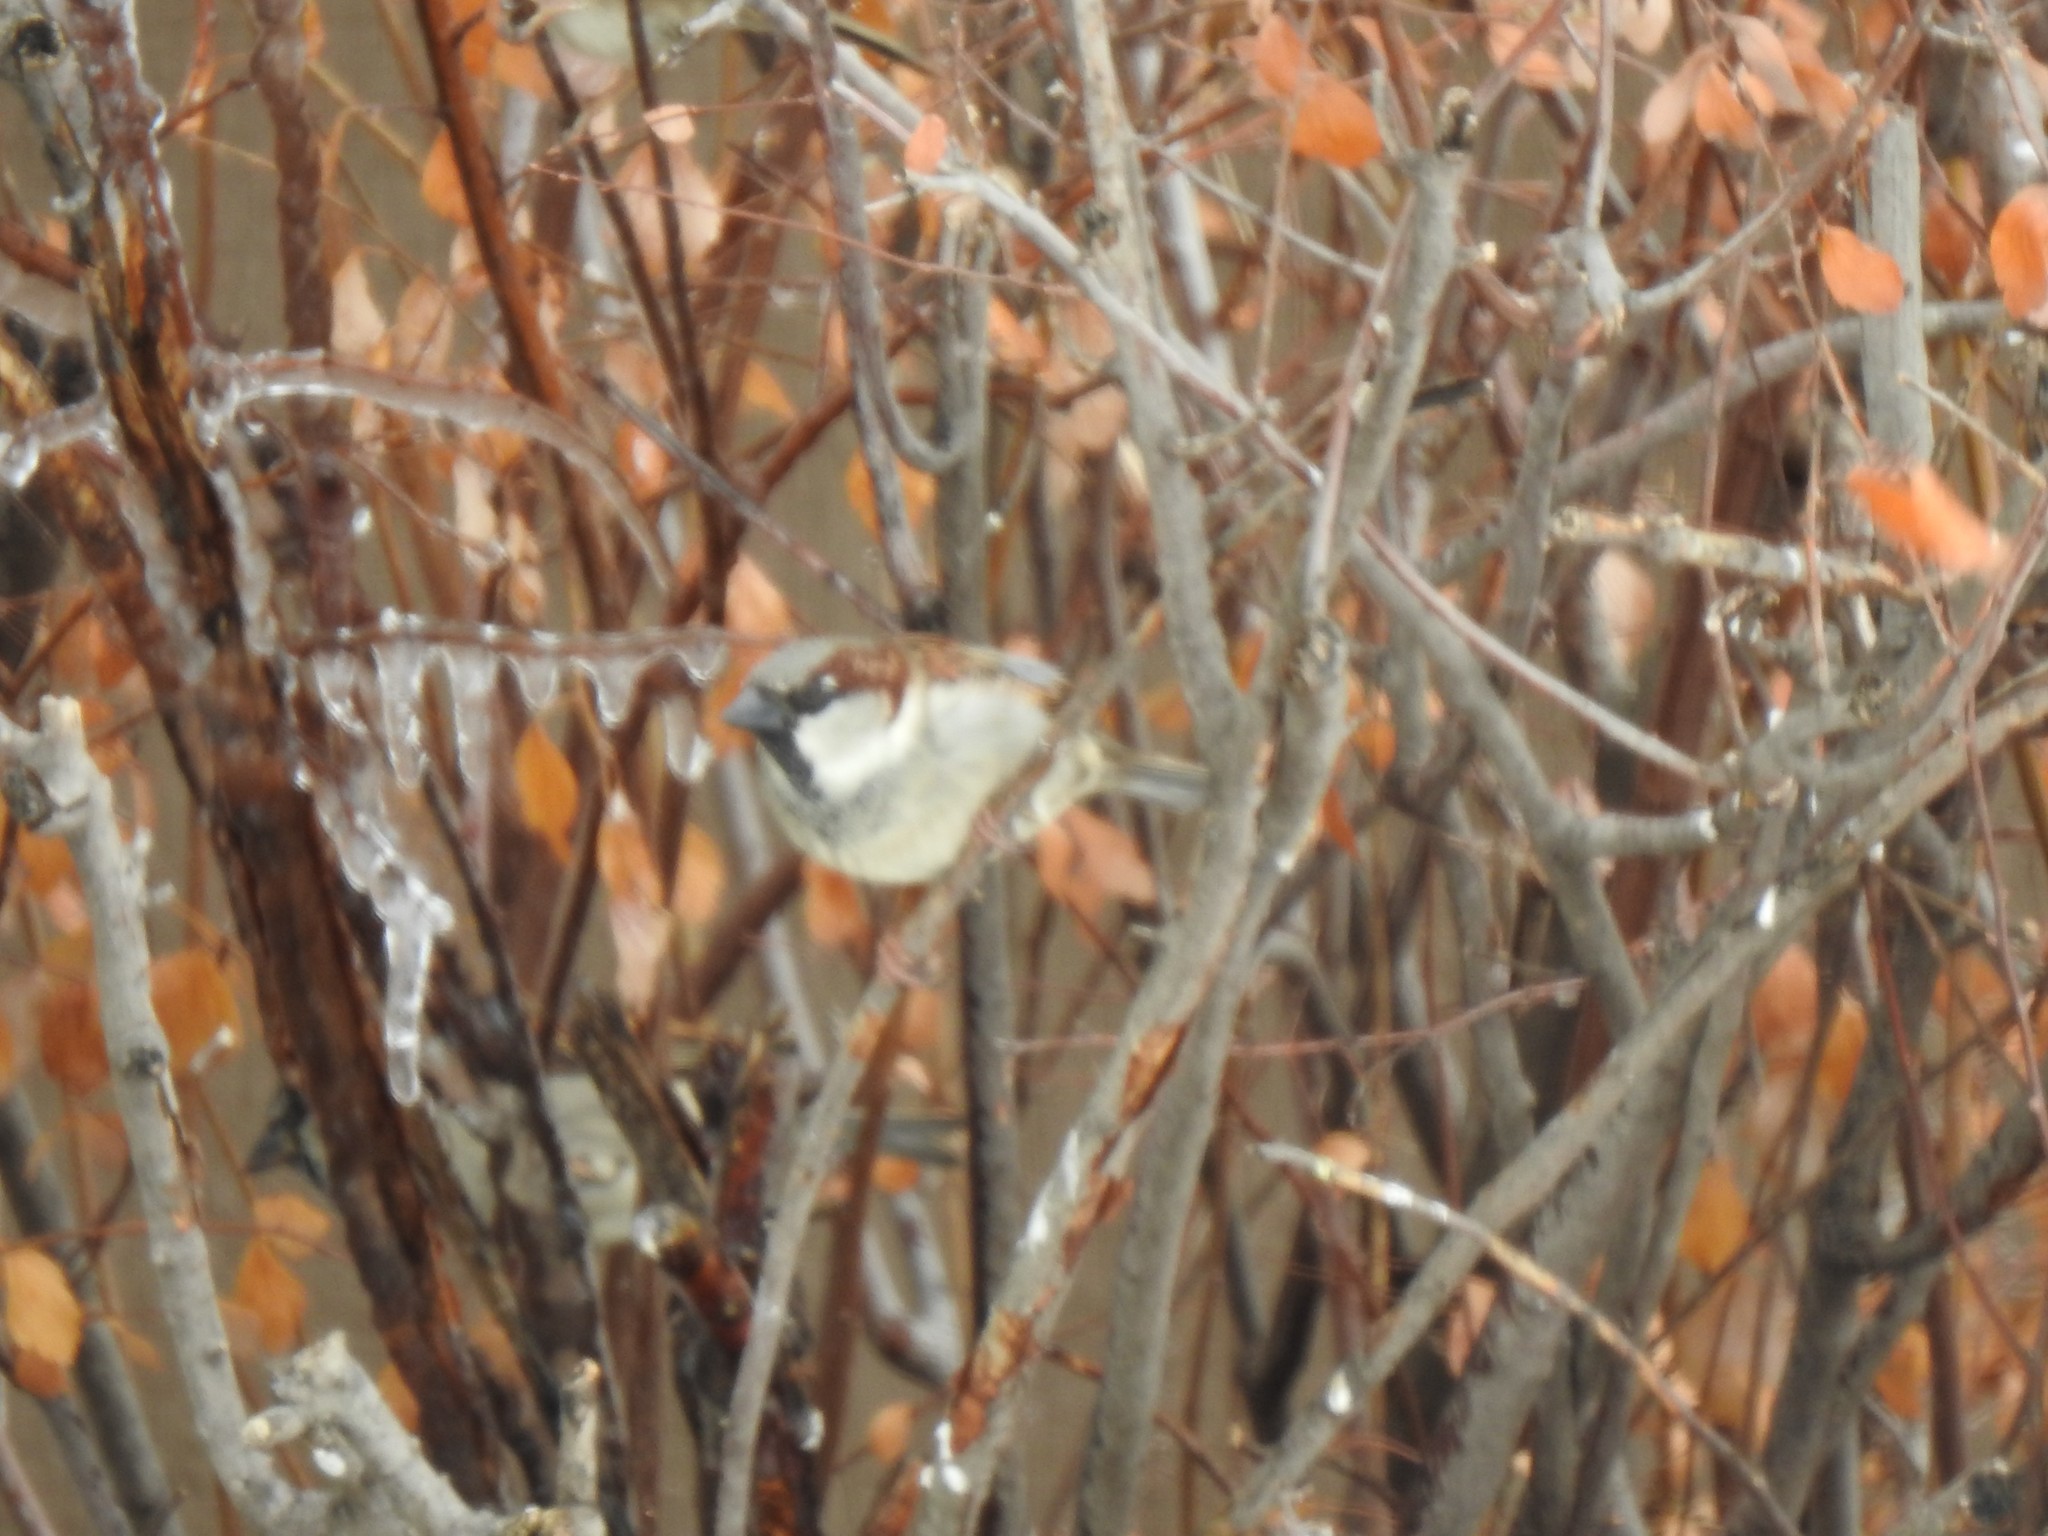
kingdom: Animalia
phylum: Chordata
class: Aves
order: Passeriformes
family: Passeridae
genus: Passer
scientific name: Passer domesticus
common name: House sparrow
